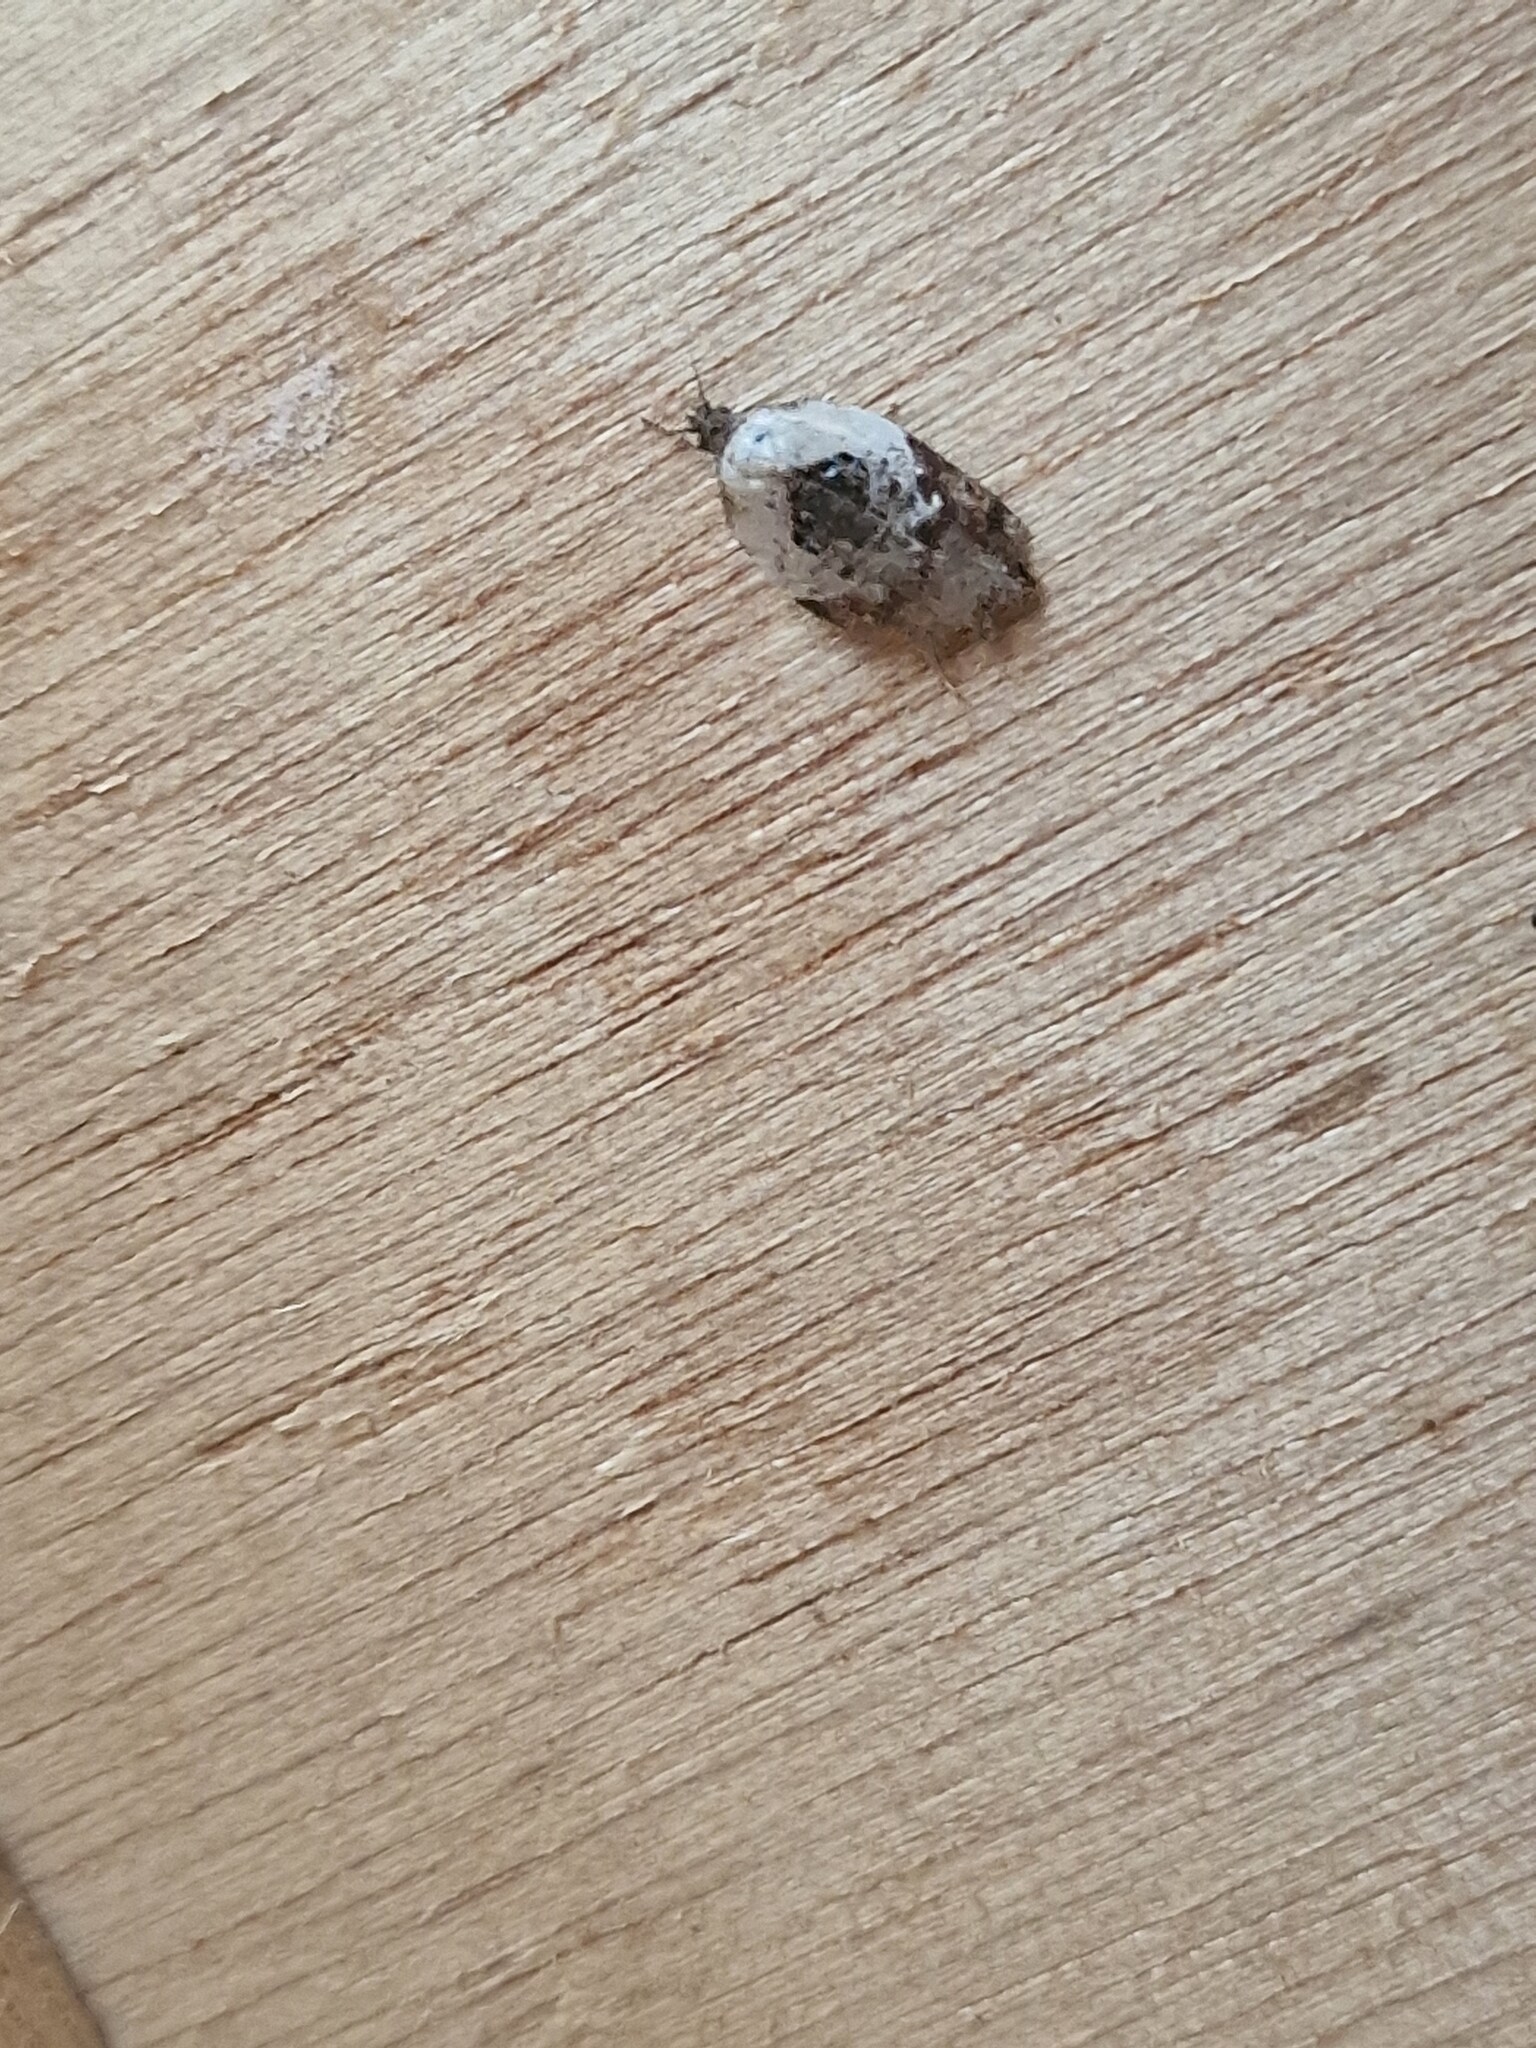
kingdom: Animalia
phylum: Arthropoda
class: Insecta
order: Lepidoptera
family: Tortricidae
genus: Acleris
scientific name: Acleris variegana
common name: Garden rose tortrix
